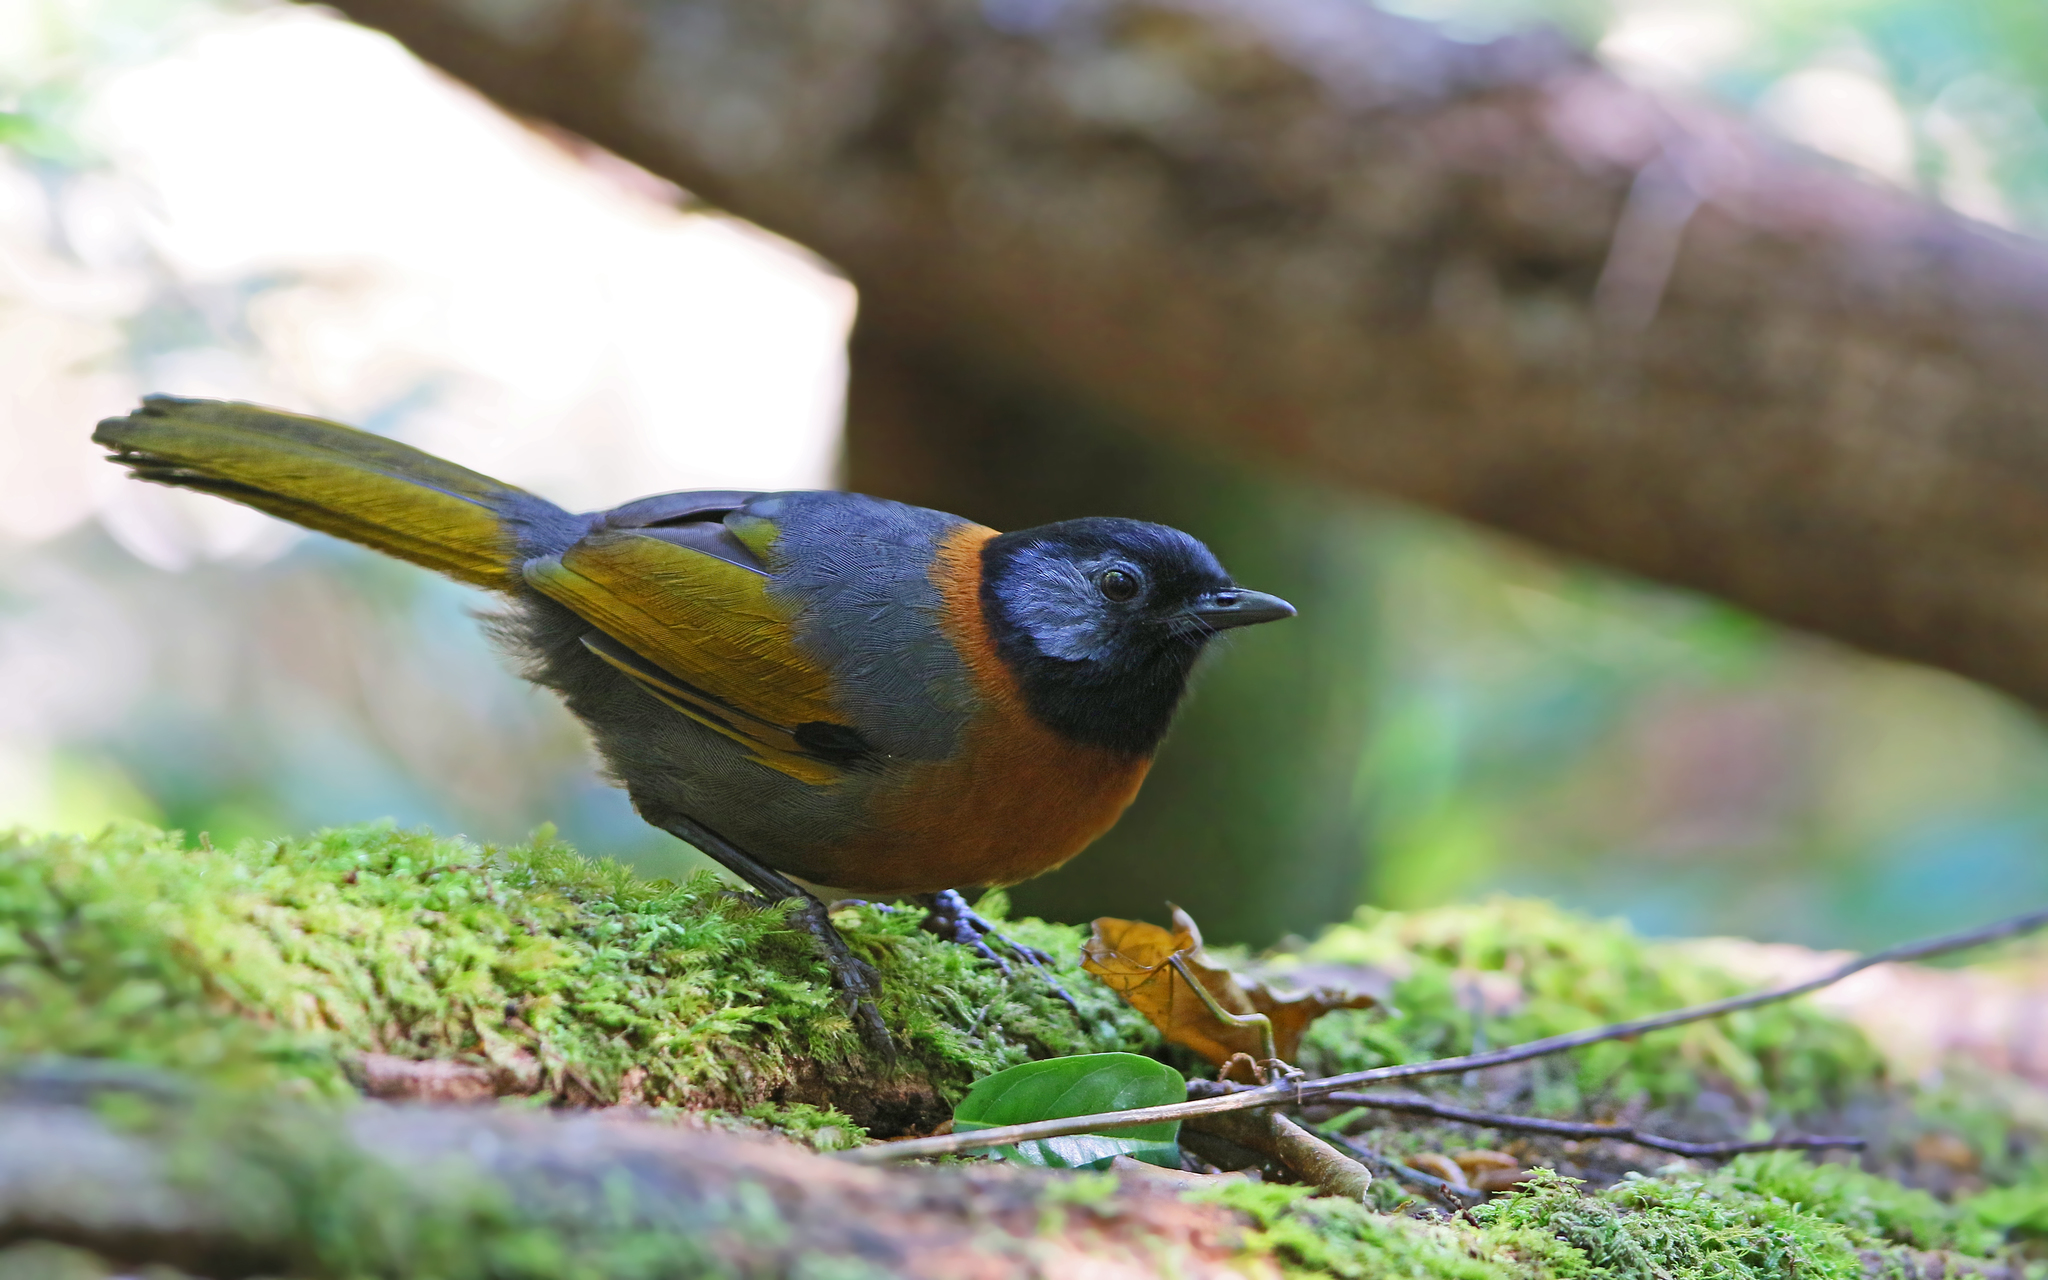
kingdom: Animalia
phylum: Chordata
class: Aves
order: Passeriformes
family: Leiothrichidae
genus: Trochalopteron
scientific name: Trochalopteron yersini
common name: Collared laughingthrush
